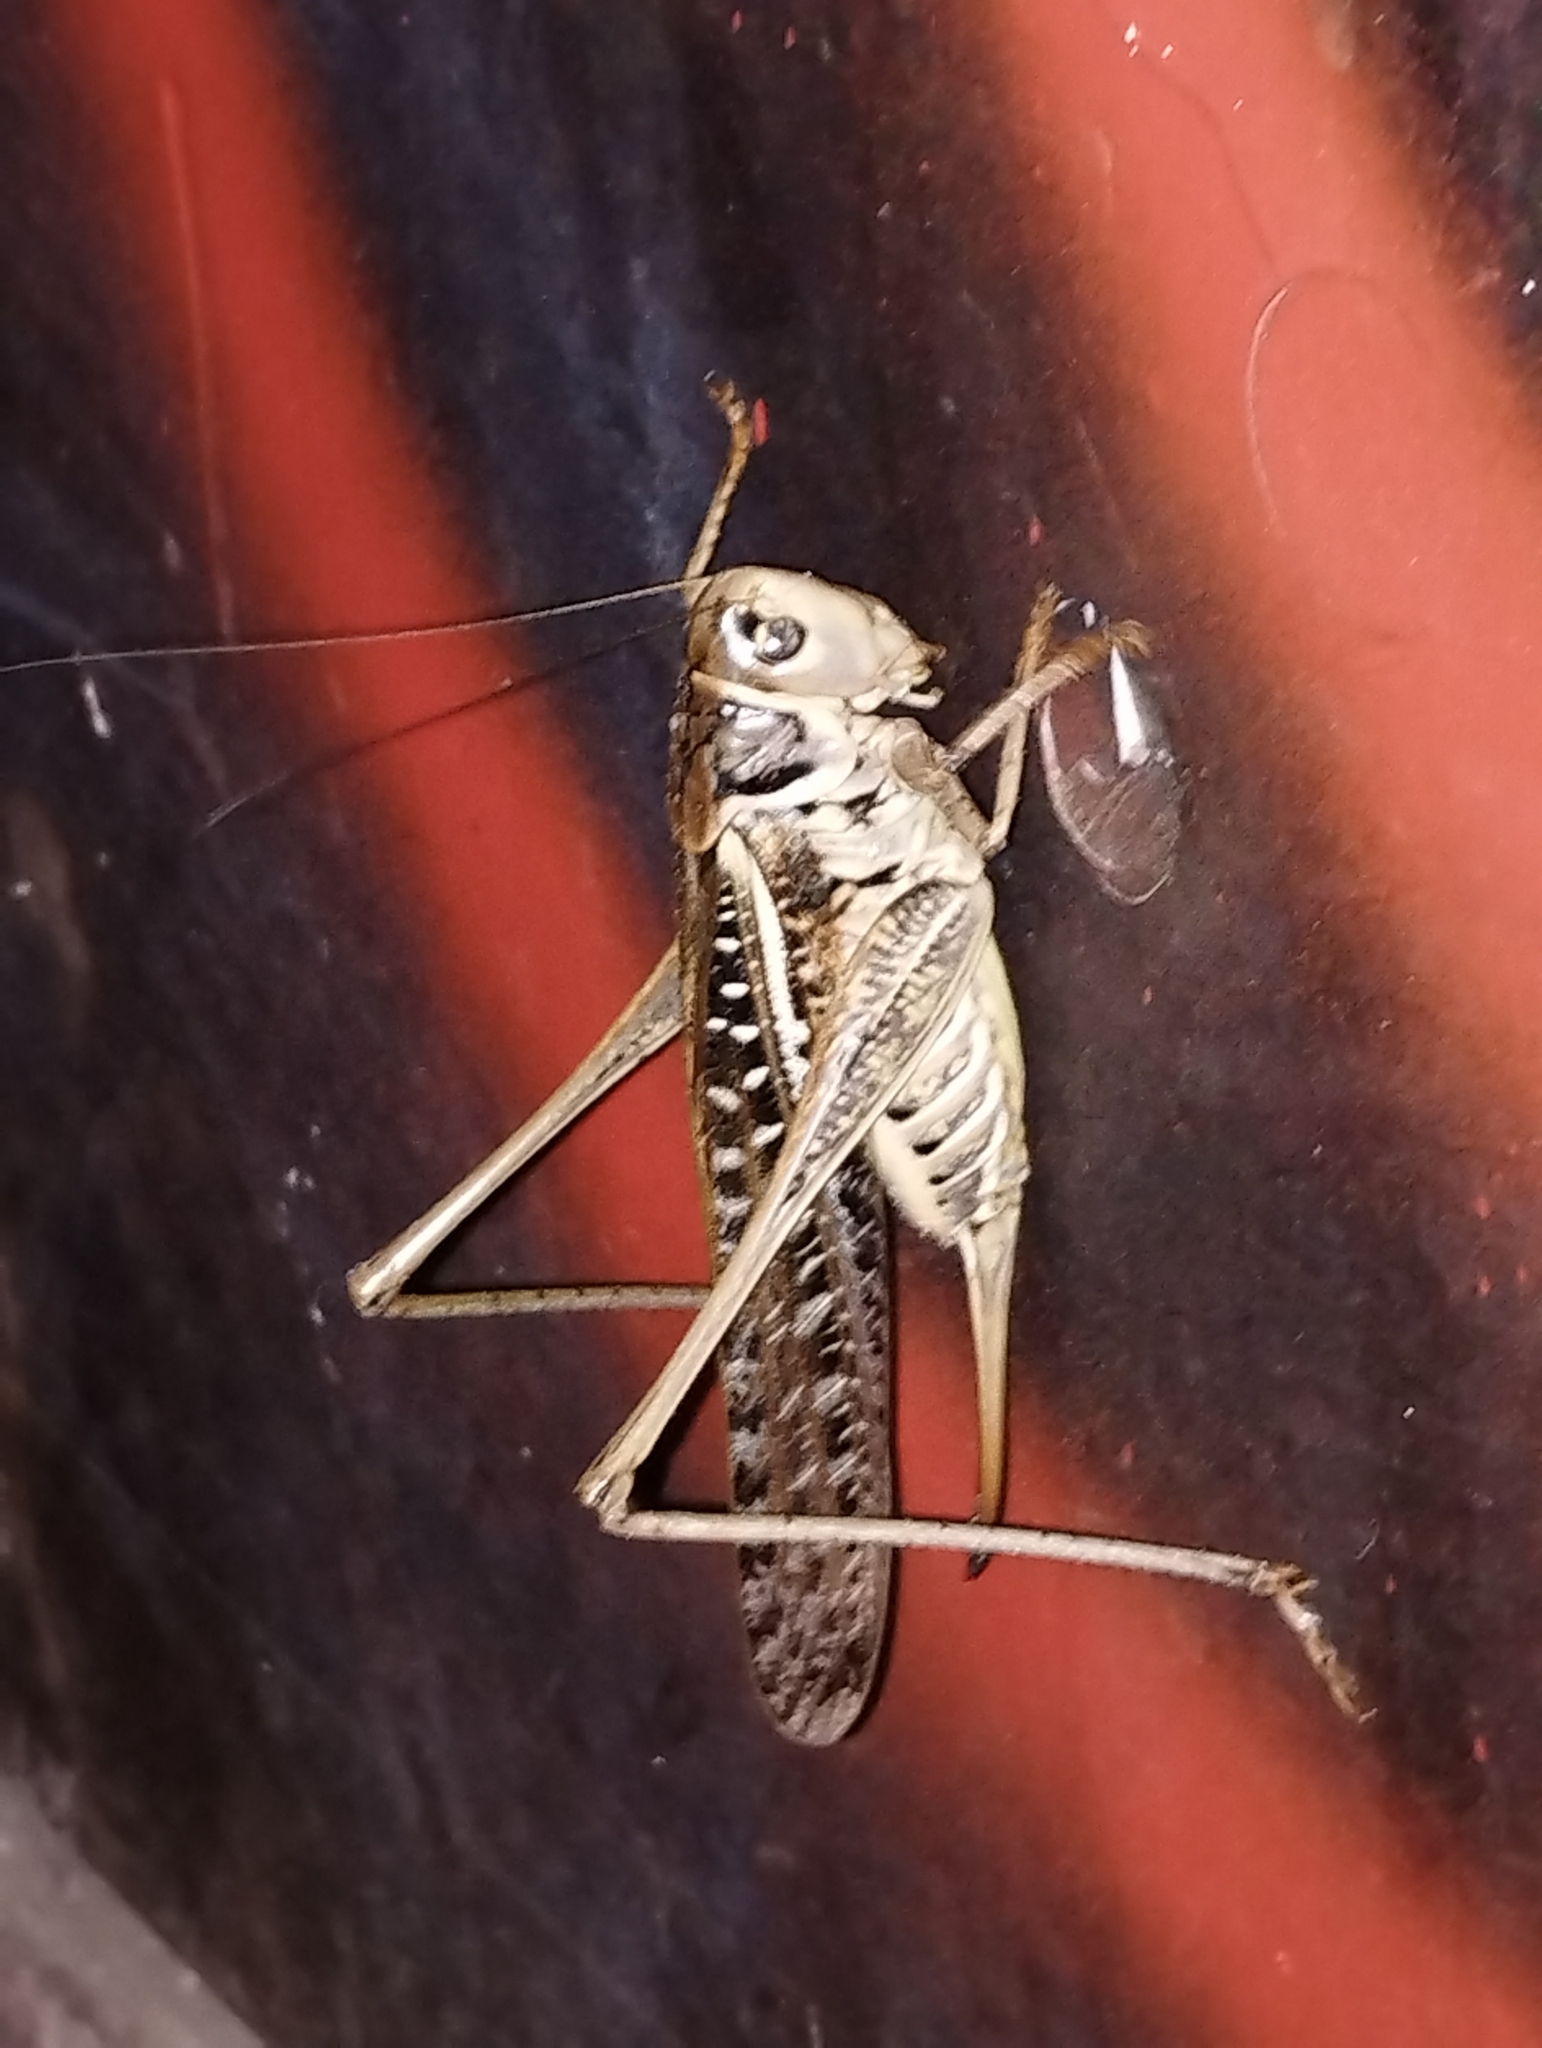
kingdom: Animalia
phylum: Arthropoda
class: Insecta
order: Orthoptera
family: Tettigoniidae
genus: Decticus
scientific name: Decticus albifrons
